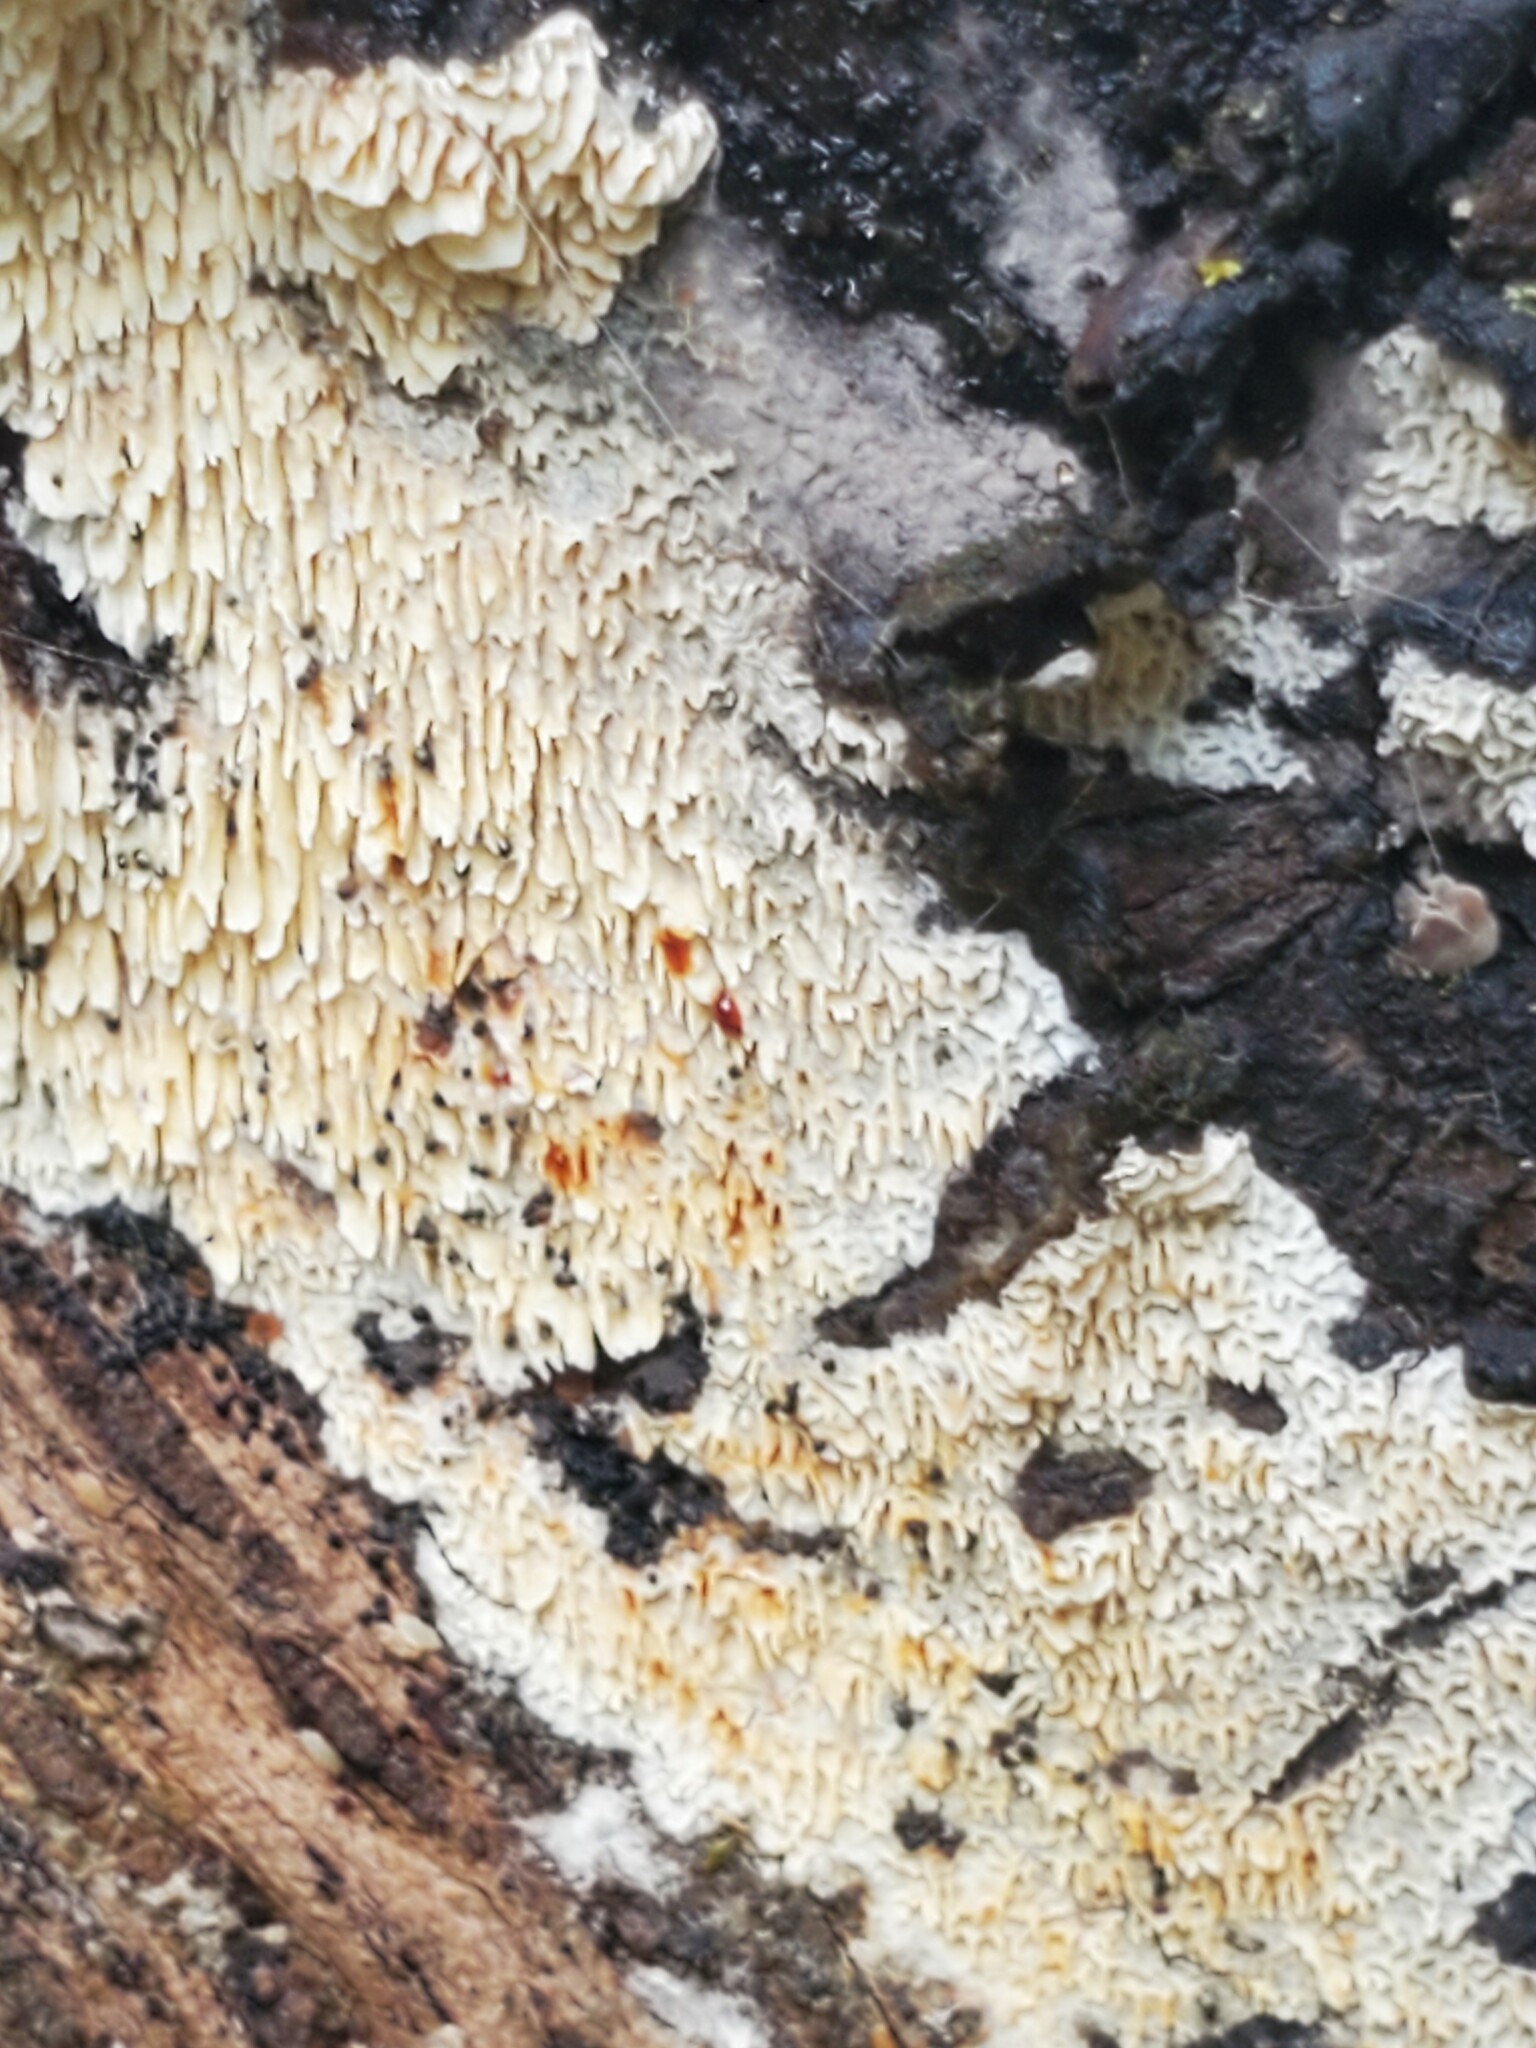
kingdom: Fungi
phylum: Basidiomycota
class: Agaricomycetes
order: Hymenochaetales
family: Schizoporaceae
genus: Xylodon
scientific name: Xylodon radula
